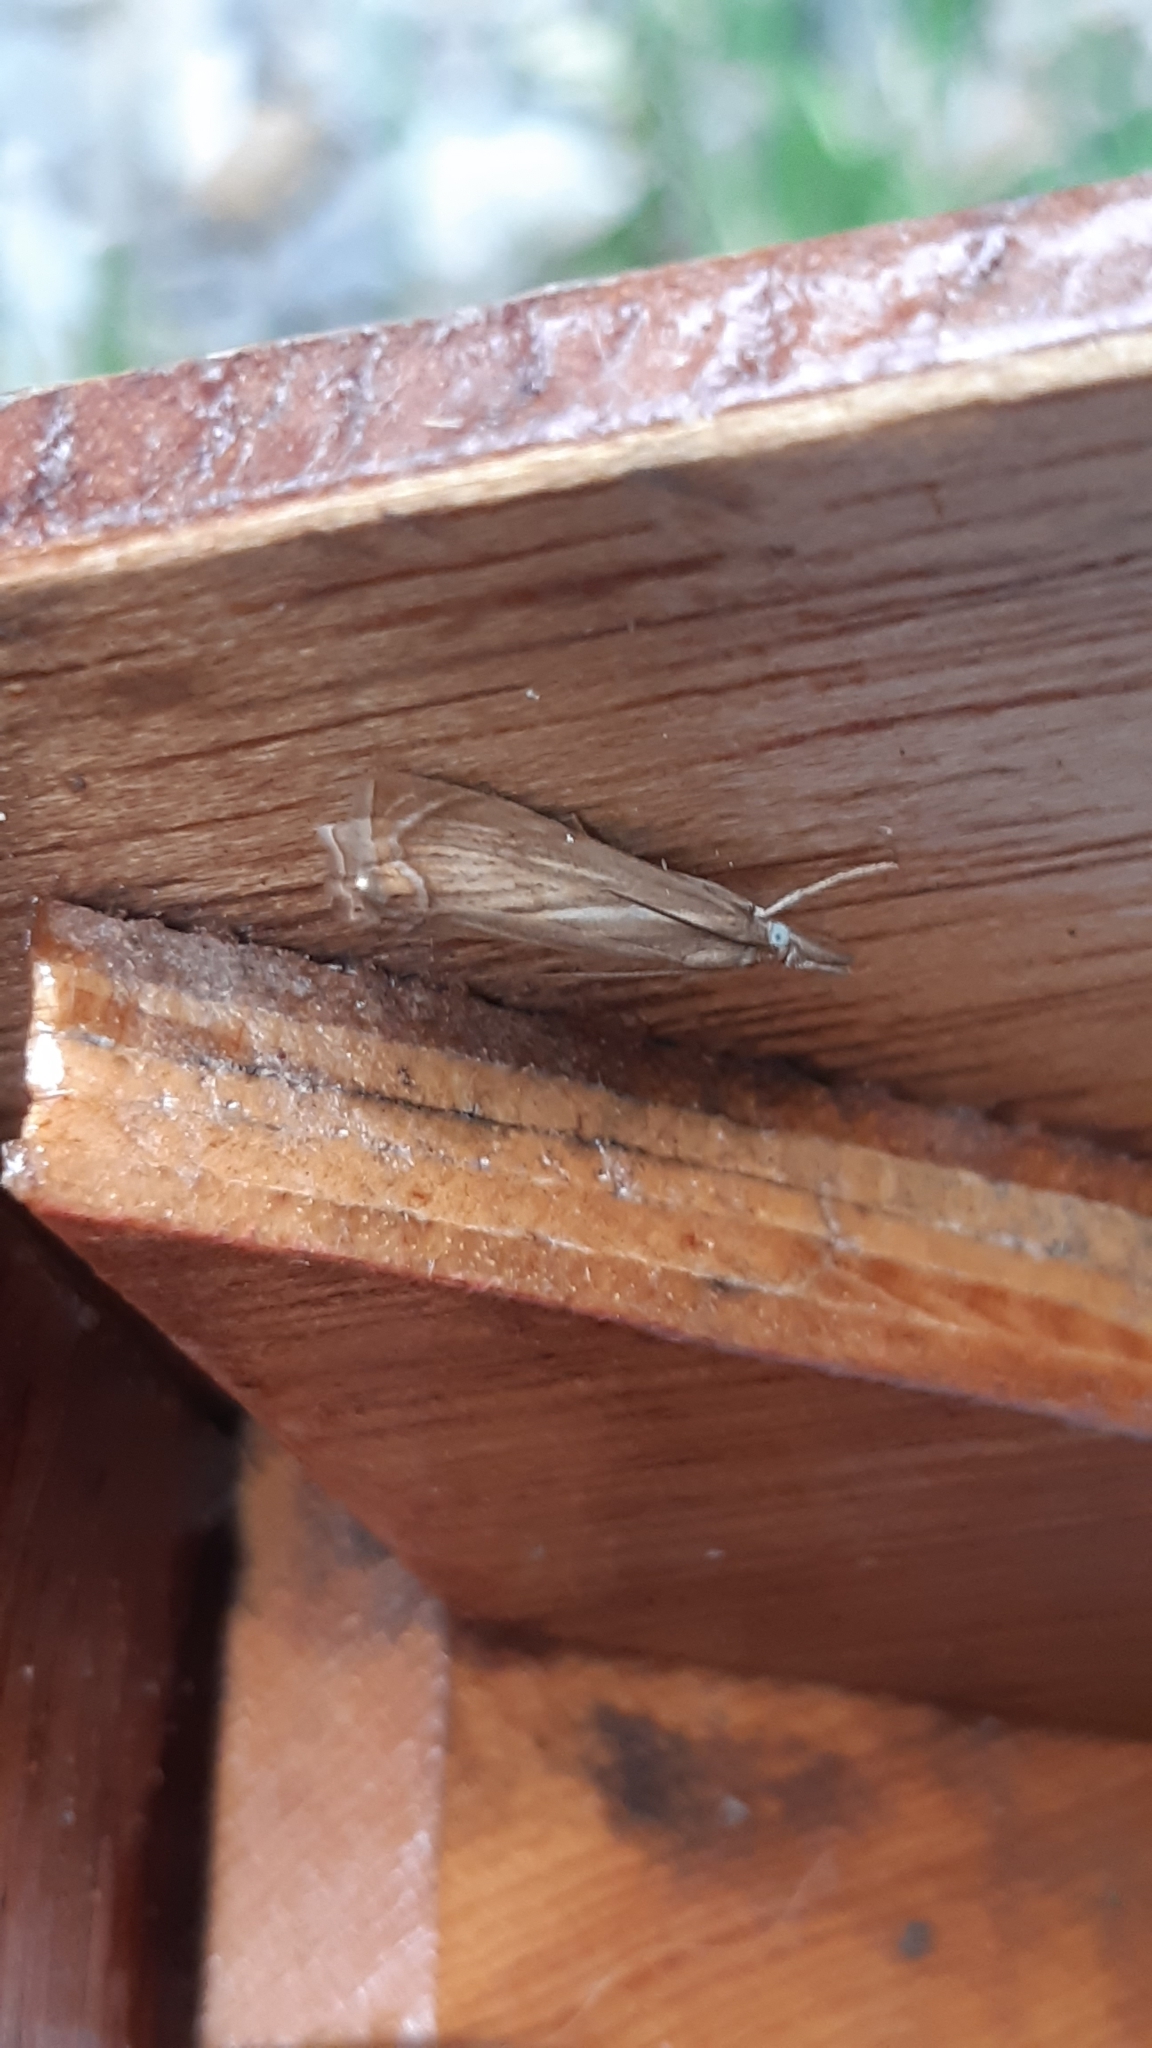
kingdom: Animalia
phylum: Arthropoda
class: Insecta
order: Lepidoptera
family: Crambidae
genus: Chrysoteuchia
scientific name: Chrysoteuchia culmella
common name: Garden grass-veneer
